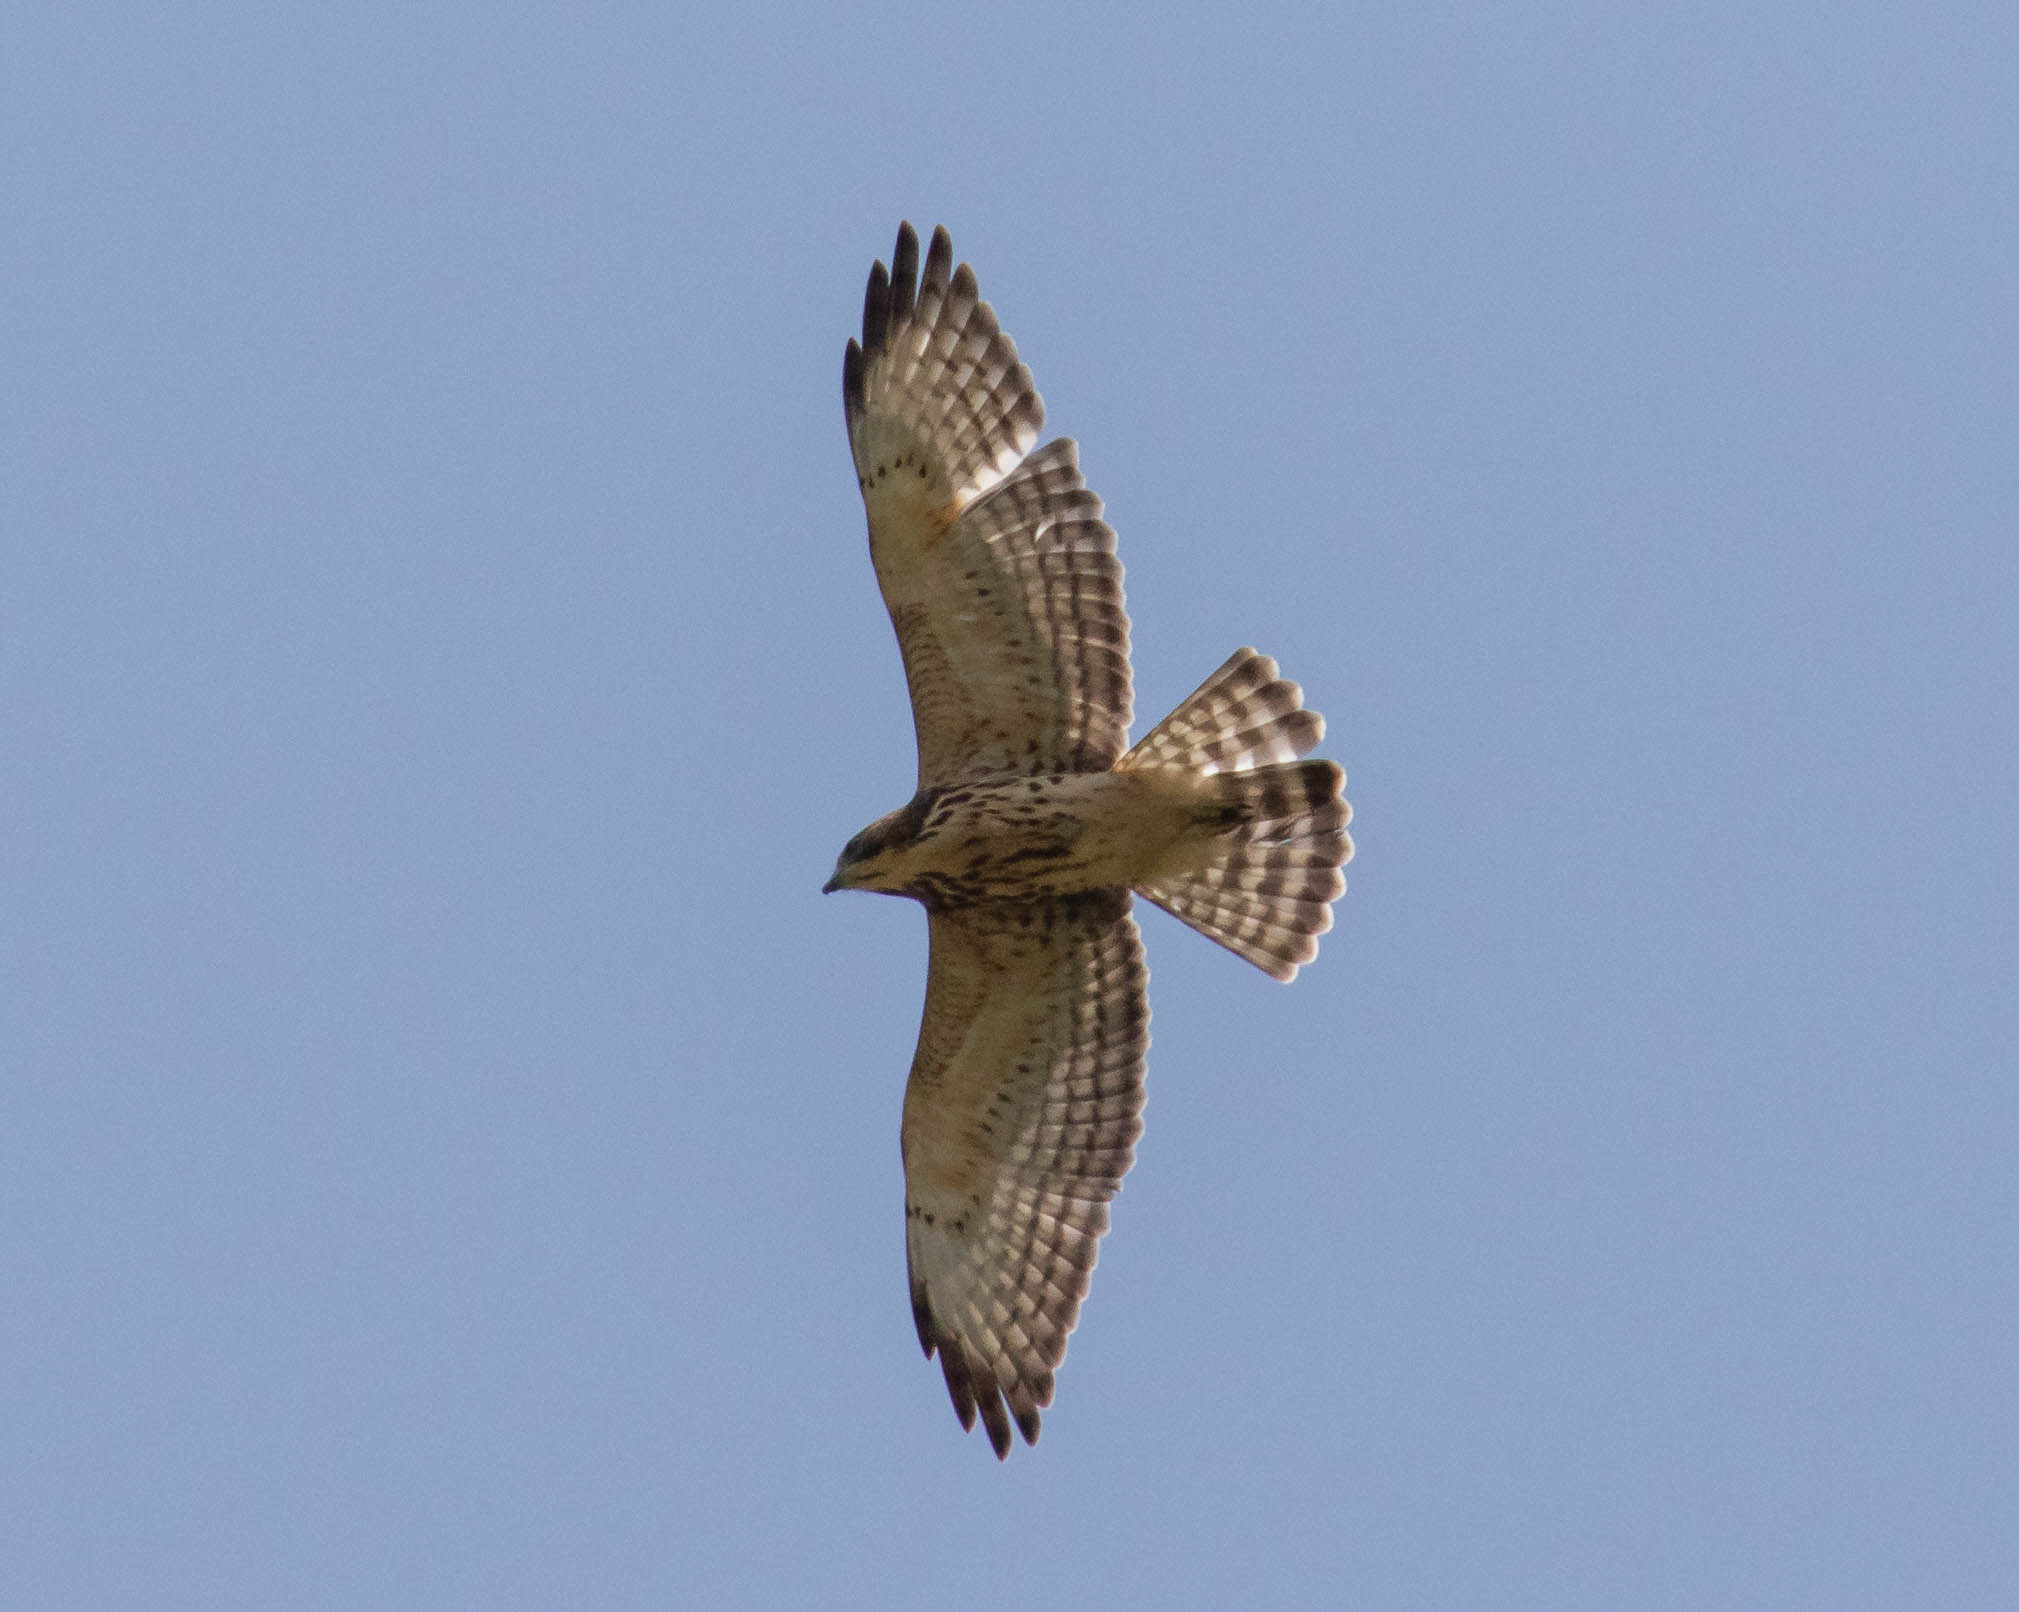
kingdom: Animalia
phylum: Chordata
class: Aves
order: Accipitriformes
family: Accipitridae
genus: Buteo
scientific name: Buteo platypterus
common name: Broad-winged hawk
